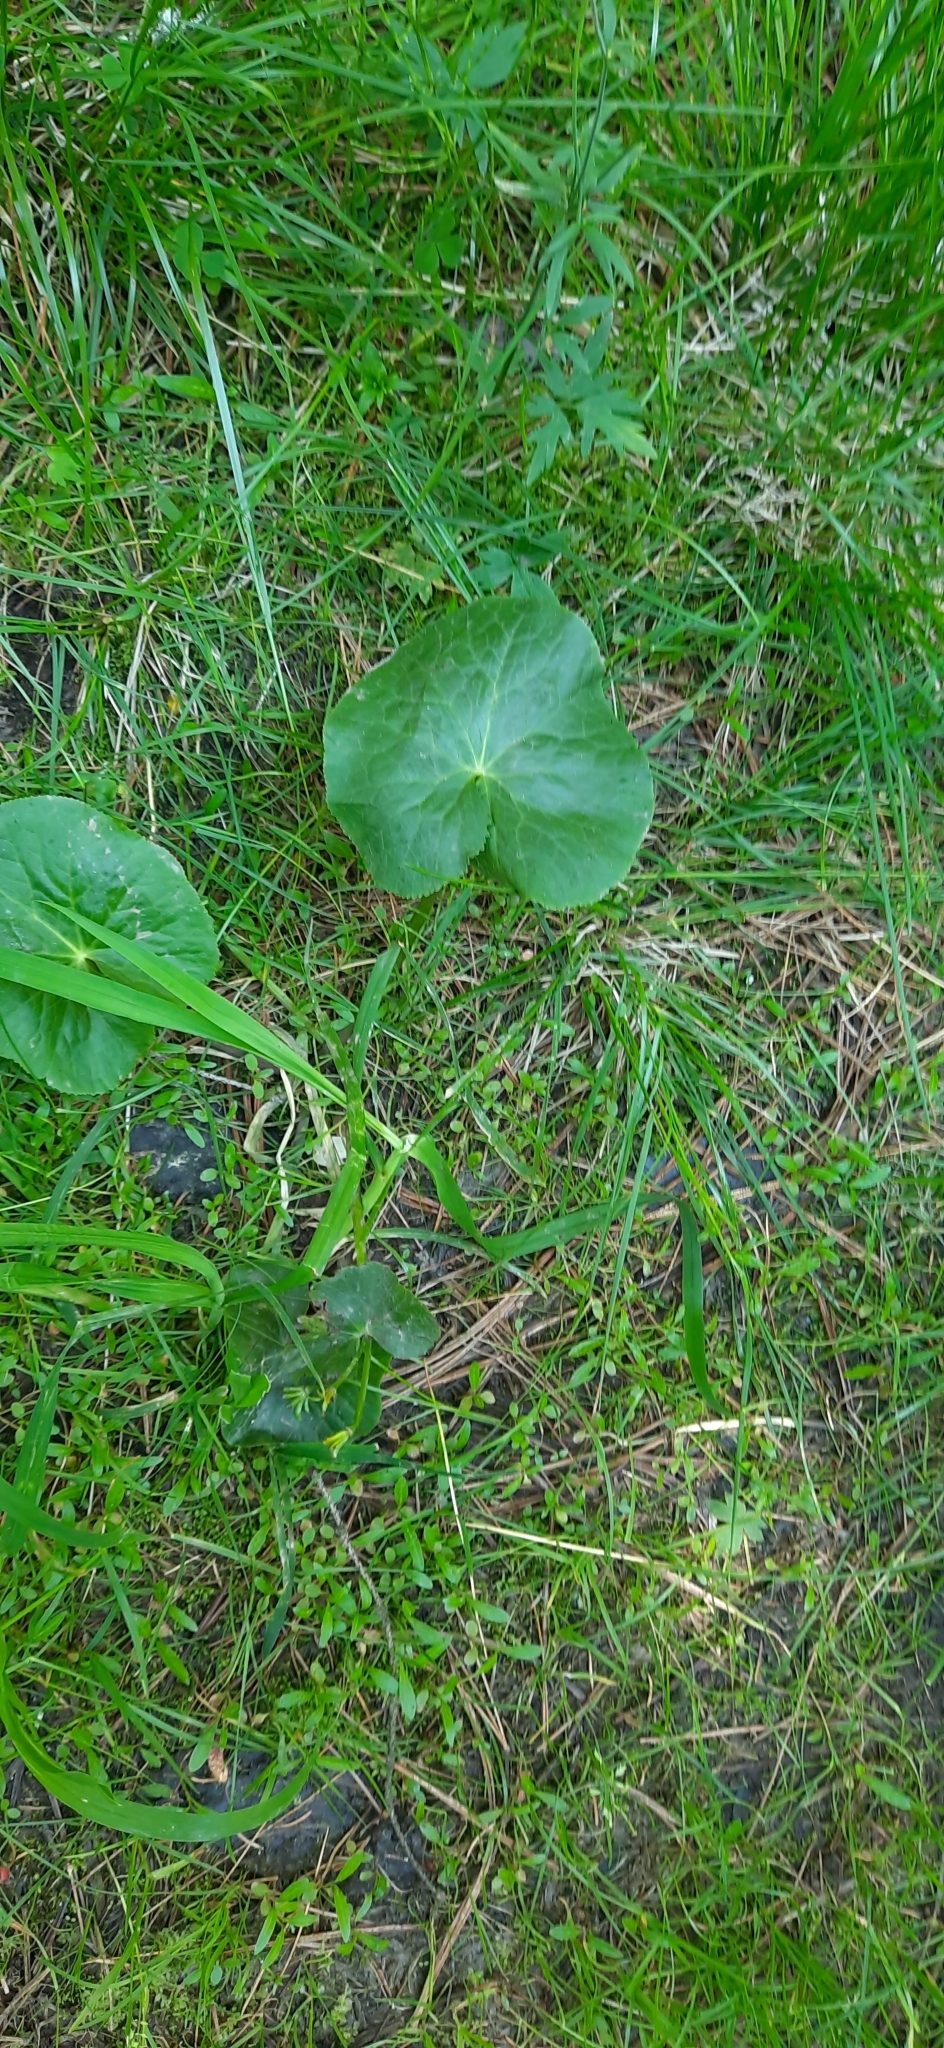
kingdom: Plantae
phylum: Tracheophyta
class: Magnoliopsida
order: Ranunculales
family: Ranunculaceae
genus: Caltha
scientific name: Caltha palustris
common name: Marsh marigold
